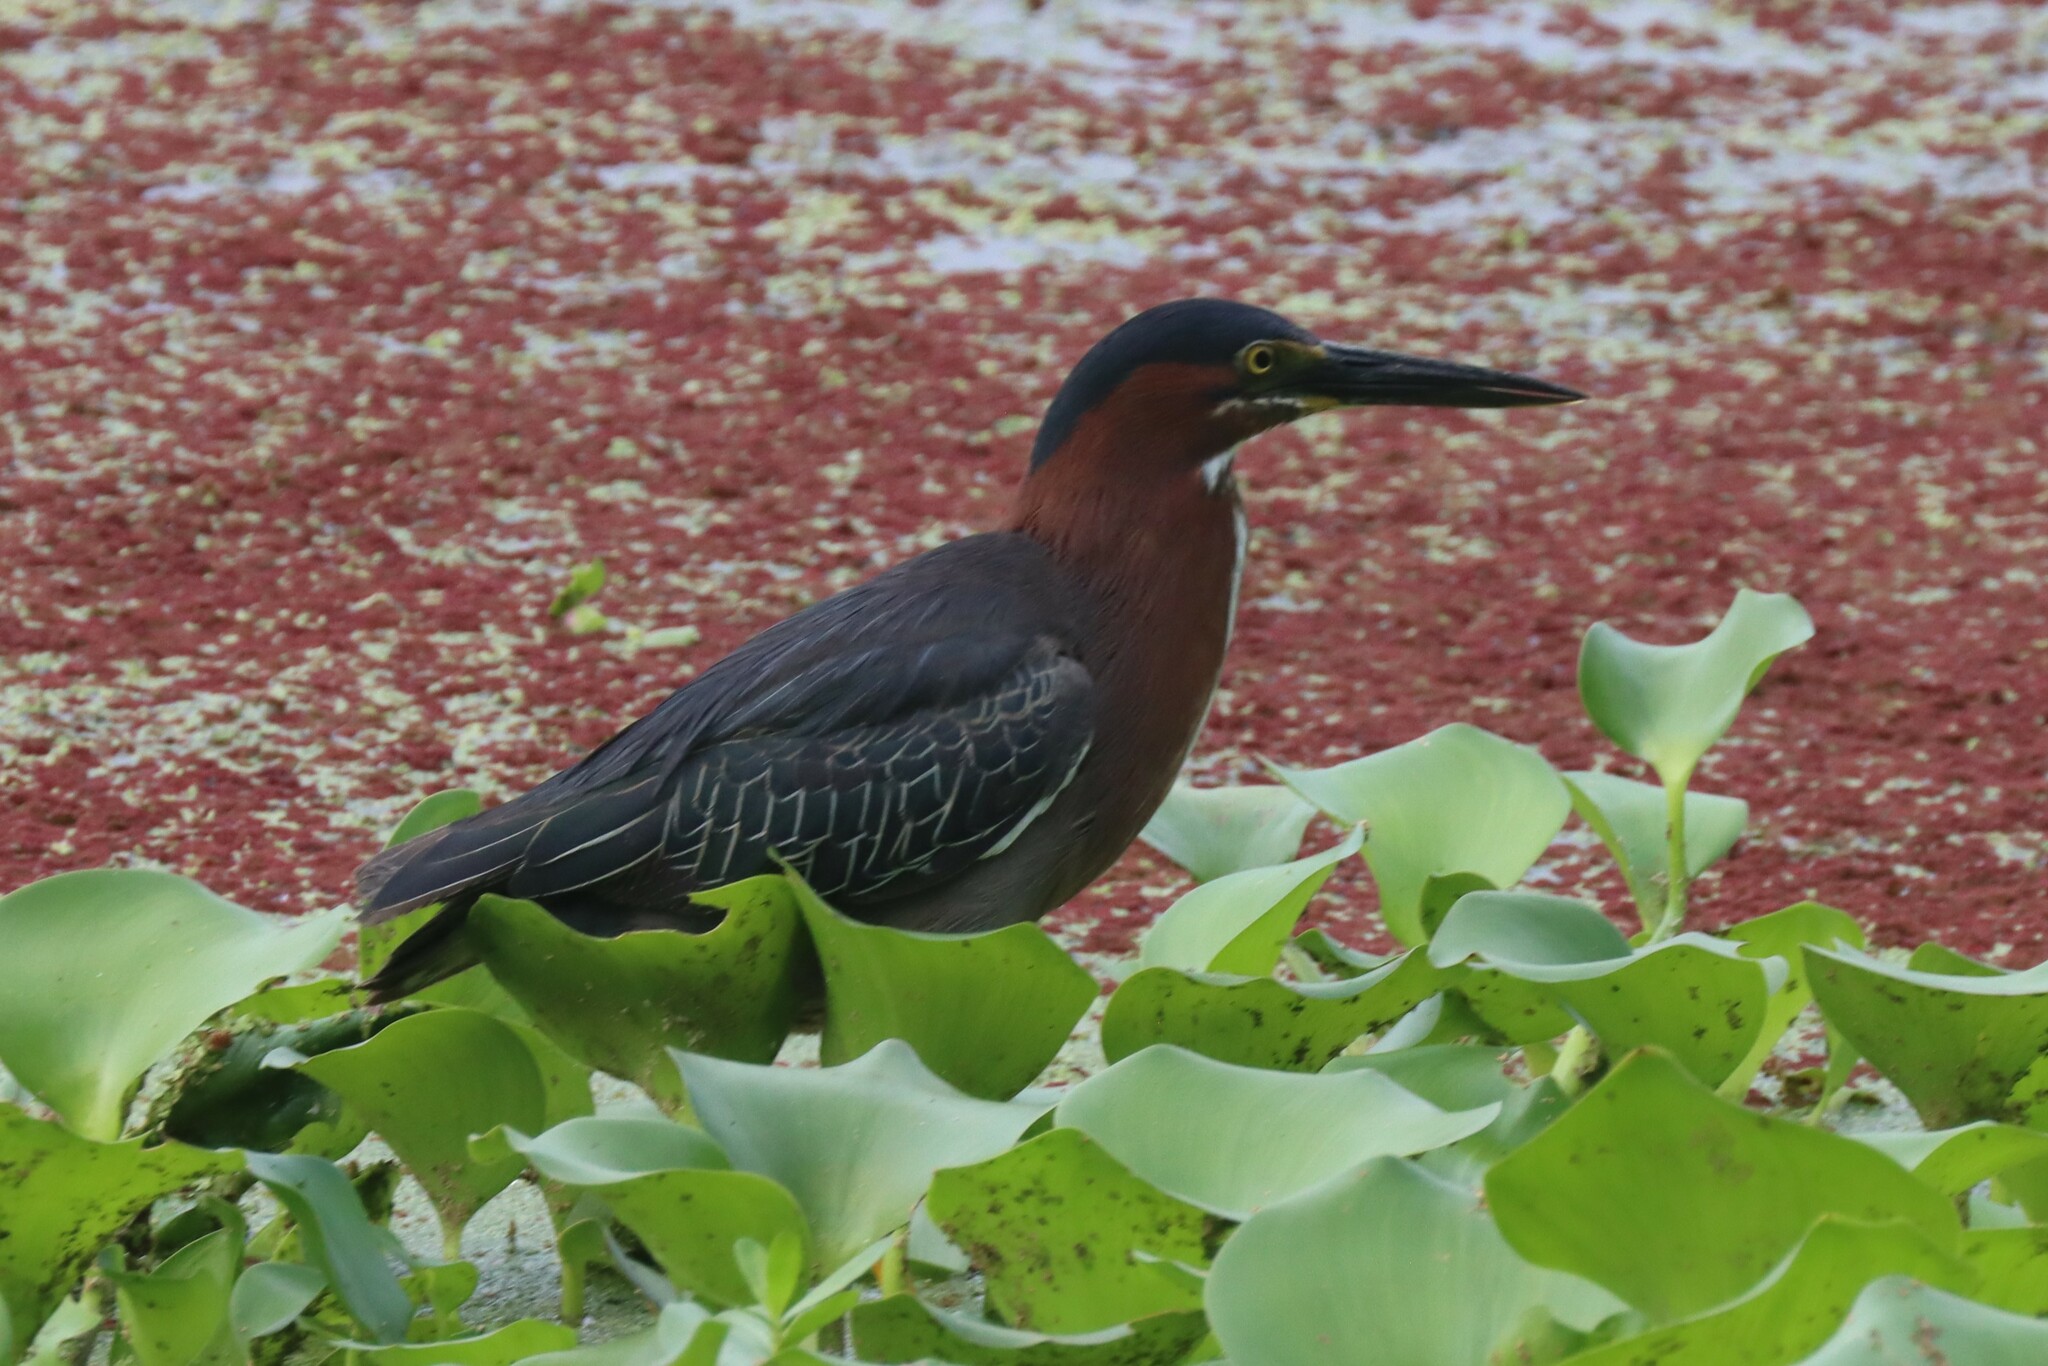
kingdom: Animalia
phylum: Chordata
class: Aves
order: Pelecaniformes
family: Ardeidae
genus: Butorides
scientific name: Butorides virescens
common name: Green heron
